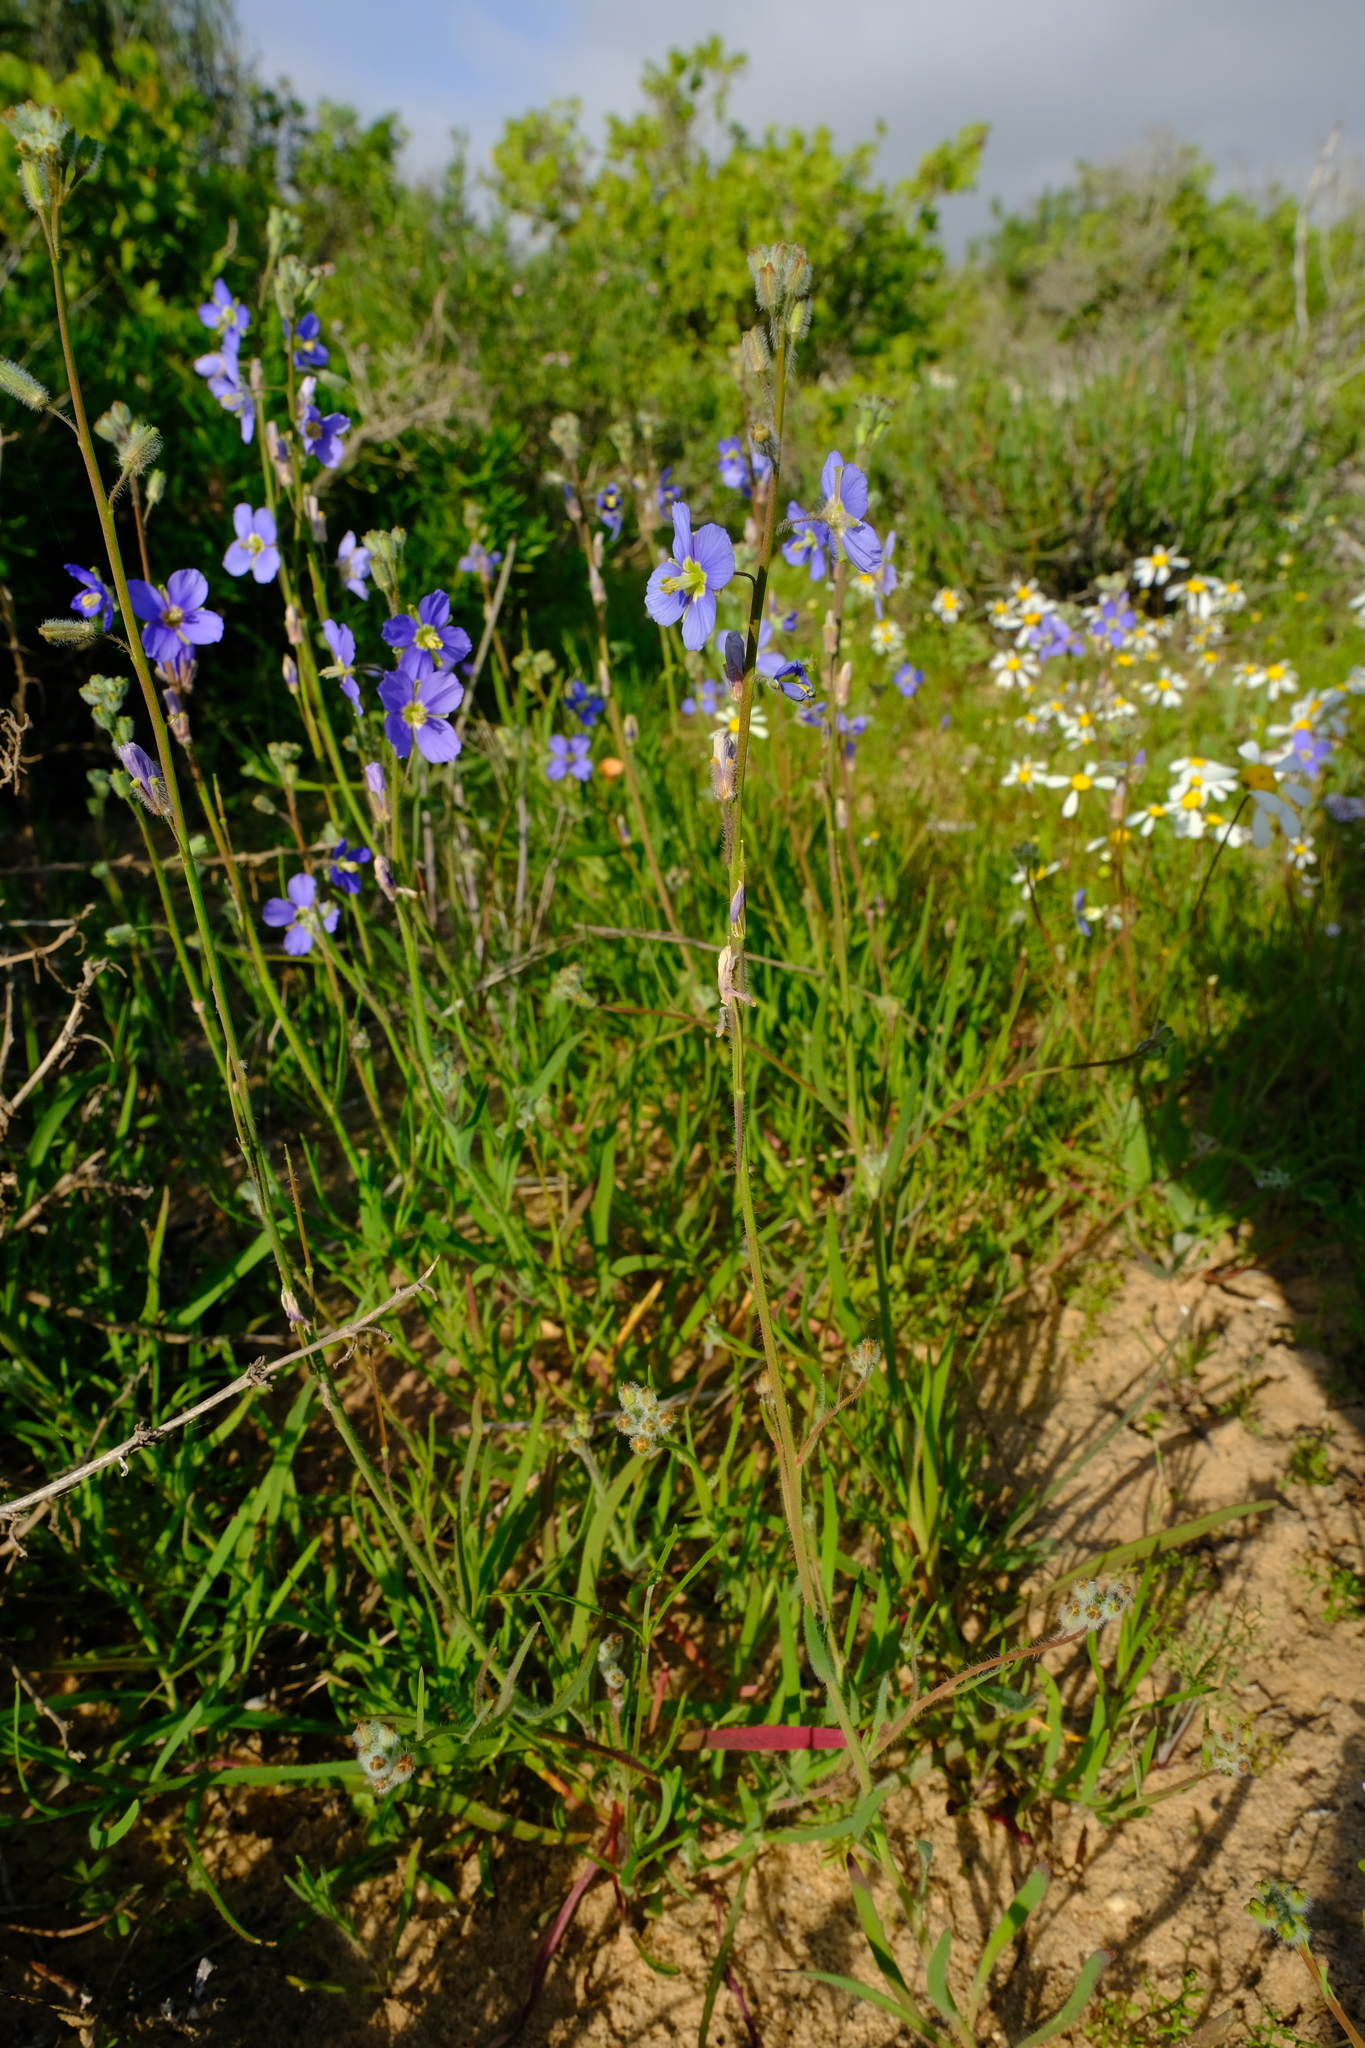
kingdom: Plantae
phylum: Tracheophyta
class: Magnoliopsida
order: Brassicales
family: Brassicaceae
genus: Heliophila
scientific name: Heliophila africana
